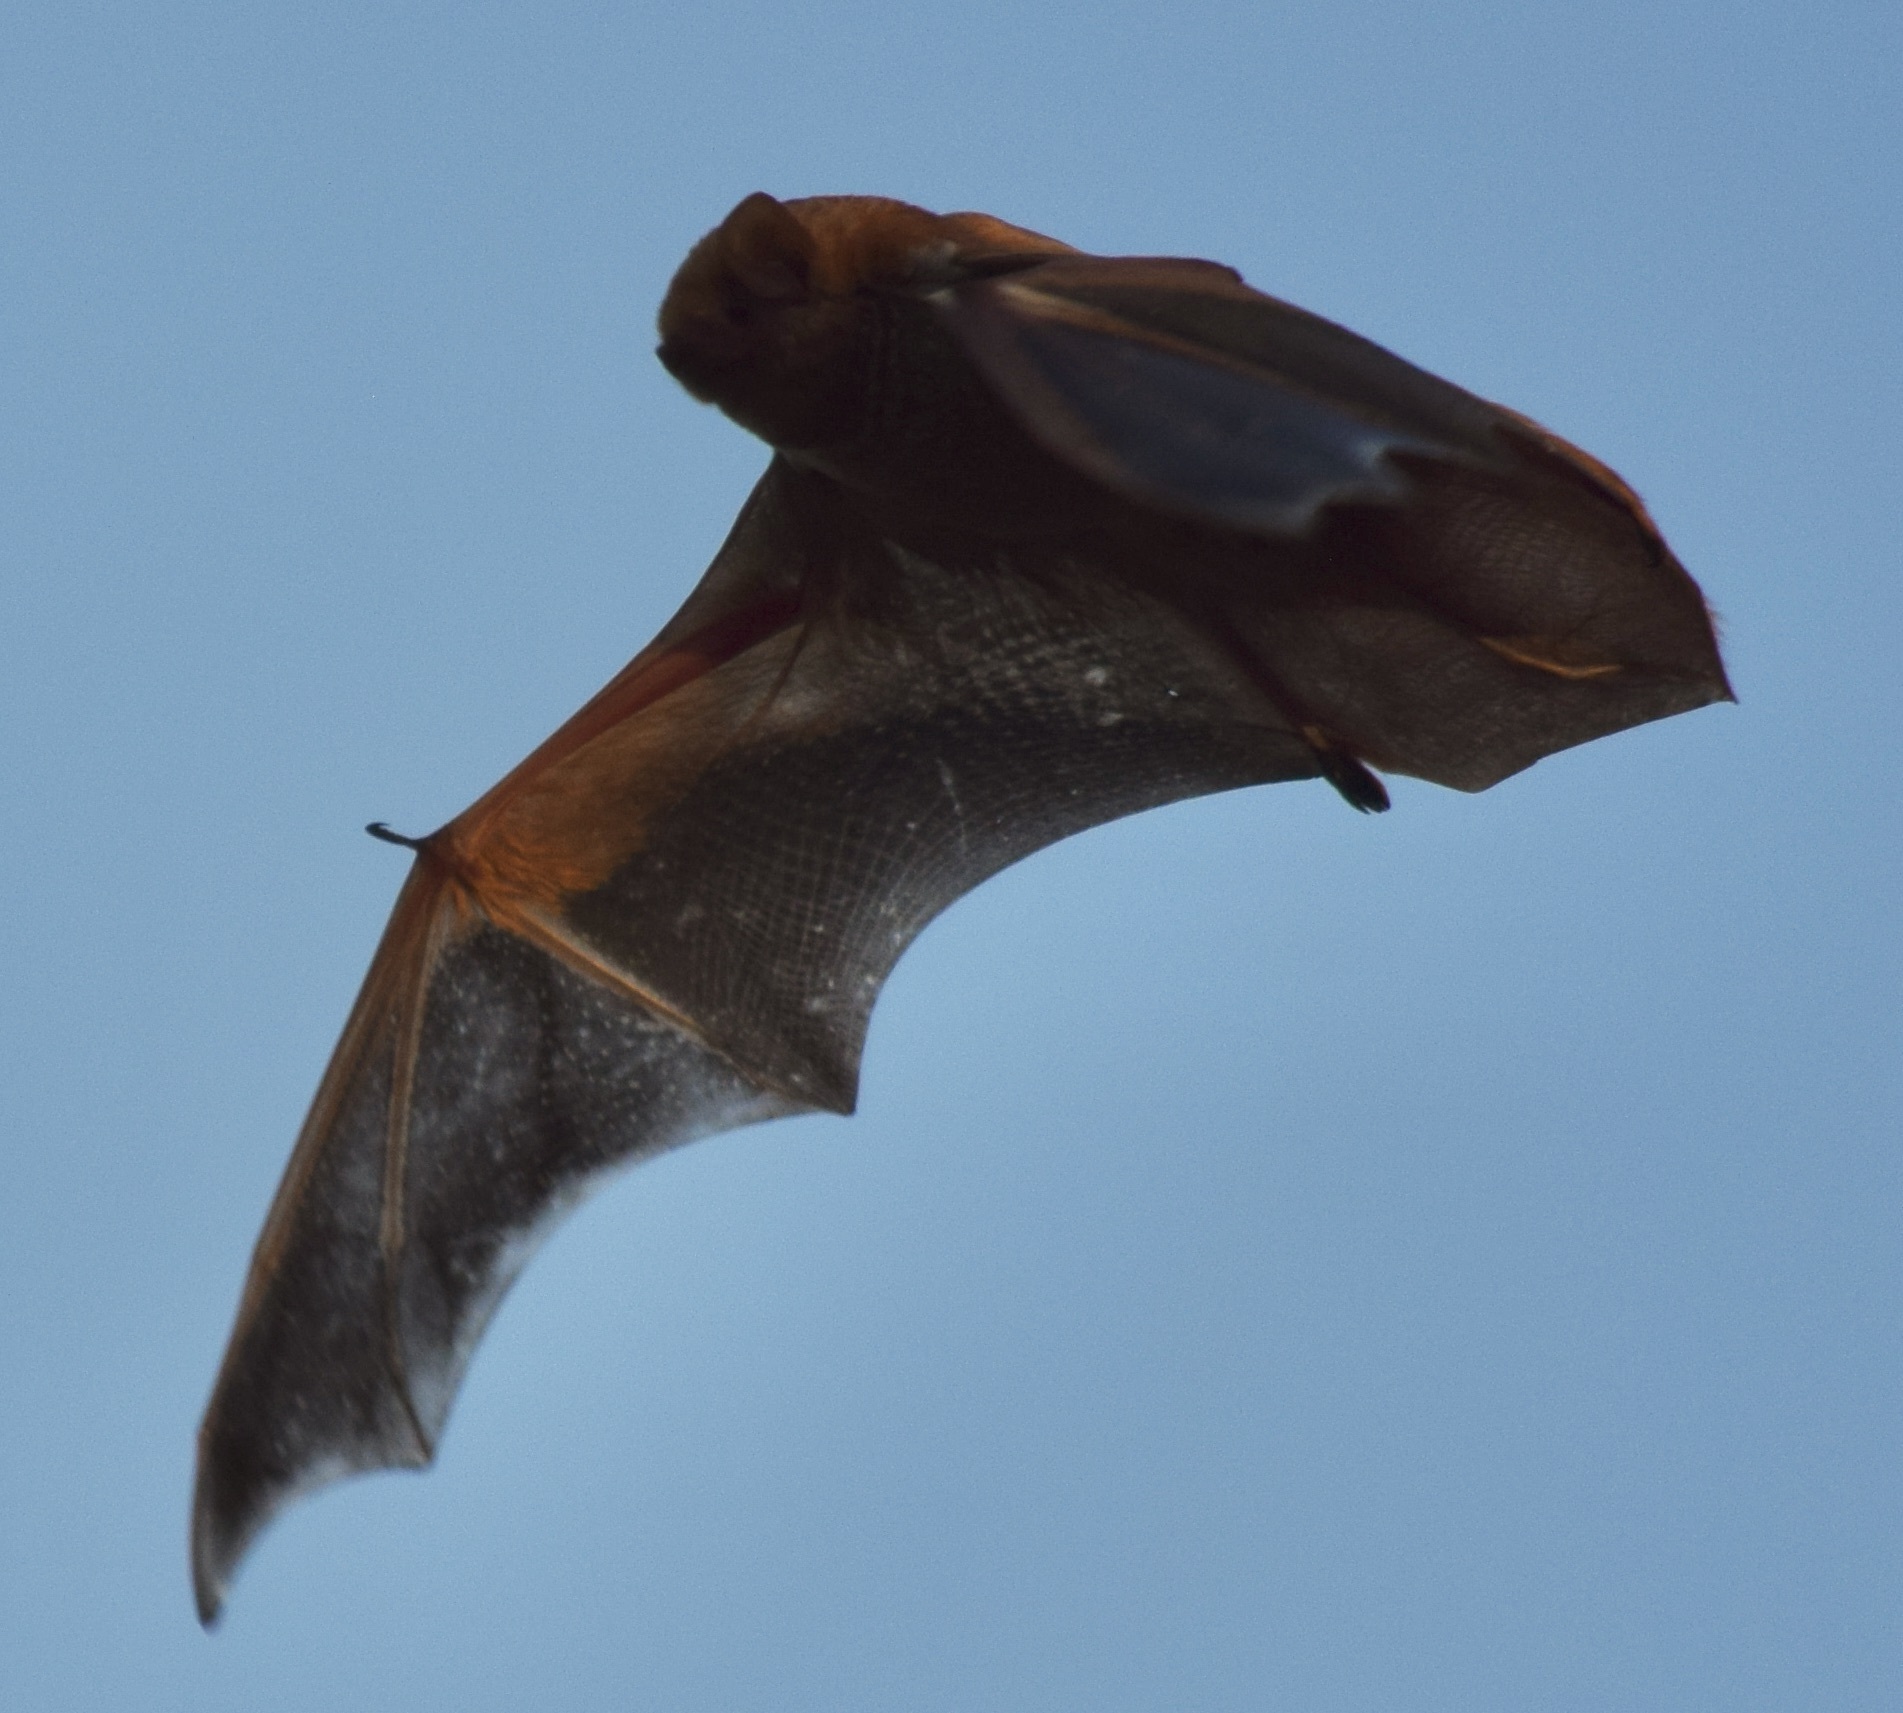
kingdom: Animalia
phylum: Chordata
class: Mammalia
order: Chiroptera
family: Vespertilionidae
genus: Lasiurus
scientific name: Lasiurus borealis
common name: Eastern red bat
